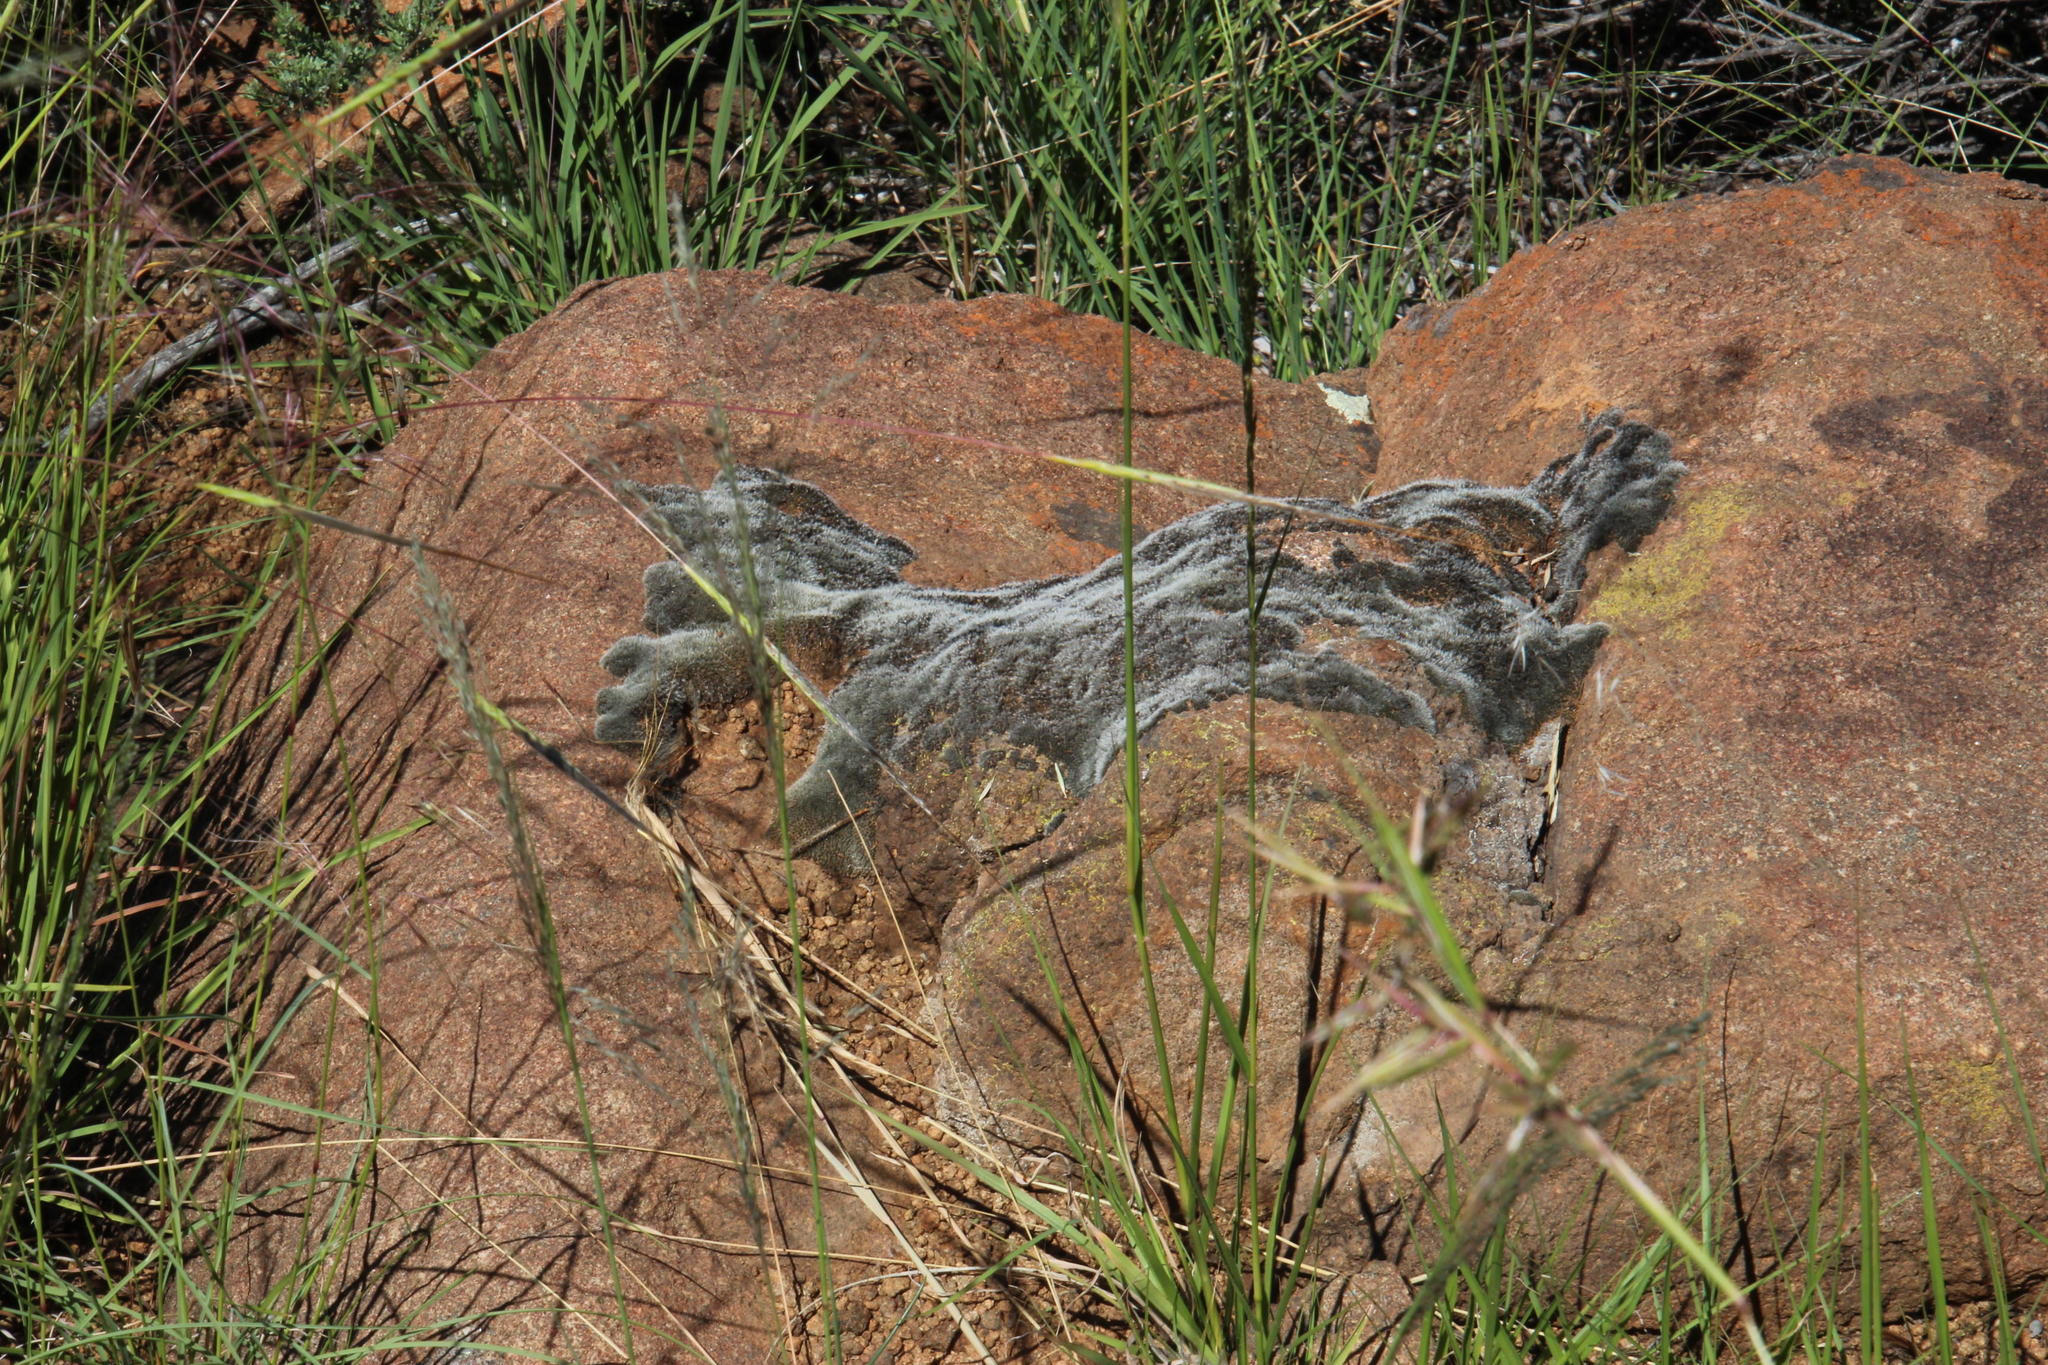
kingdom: Plantae
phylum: Bryophyta
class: Bryopsida
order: Grimmiales
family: Grimmiaceae
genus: Grimmia
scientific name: Grimmia laevigata
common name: Hoary grimmia
